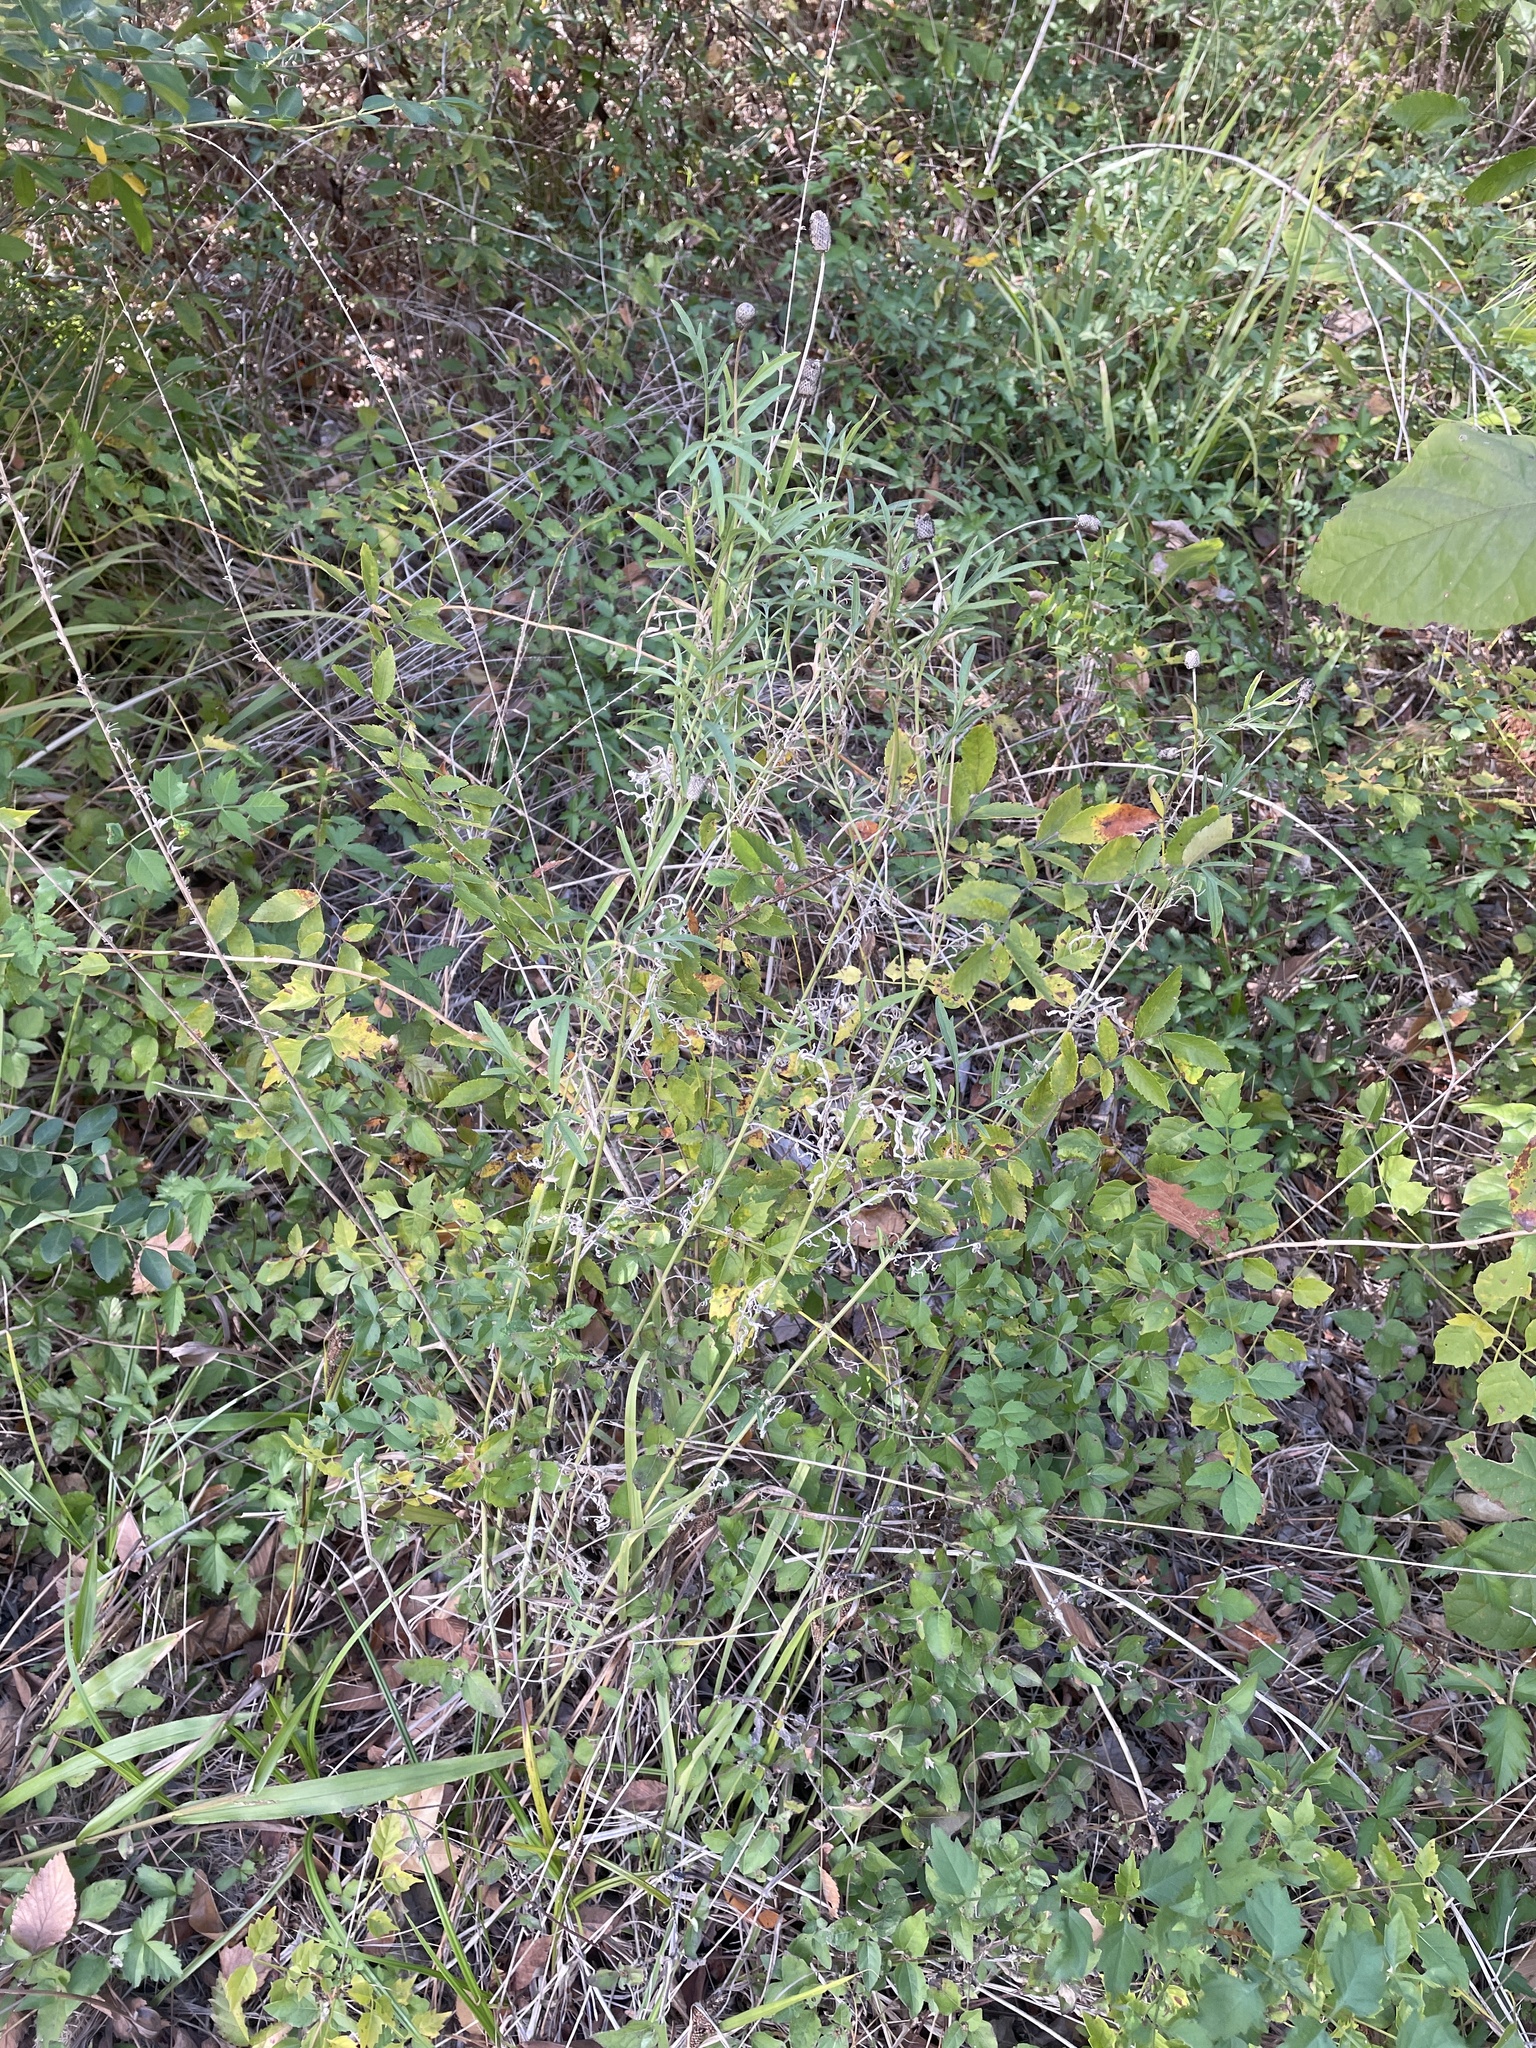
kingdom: Plantae
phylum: Tracheophyta
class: Magnoliopsida
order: Asterales
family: Asteraceae
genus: Ratibida
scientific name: Ratibida columnifera
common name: Prairie coneflower
